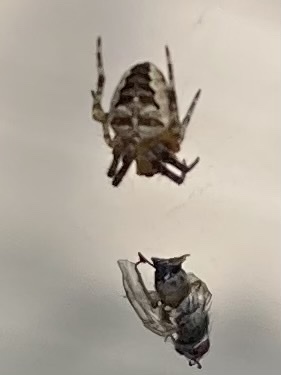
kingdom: Animalia
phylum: Arthropoda
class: Arachnida
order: Araneae
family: Araneidae
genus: Araneus
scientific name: Araneus diadematus
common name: Cross orbweaver
